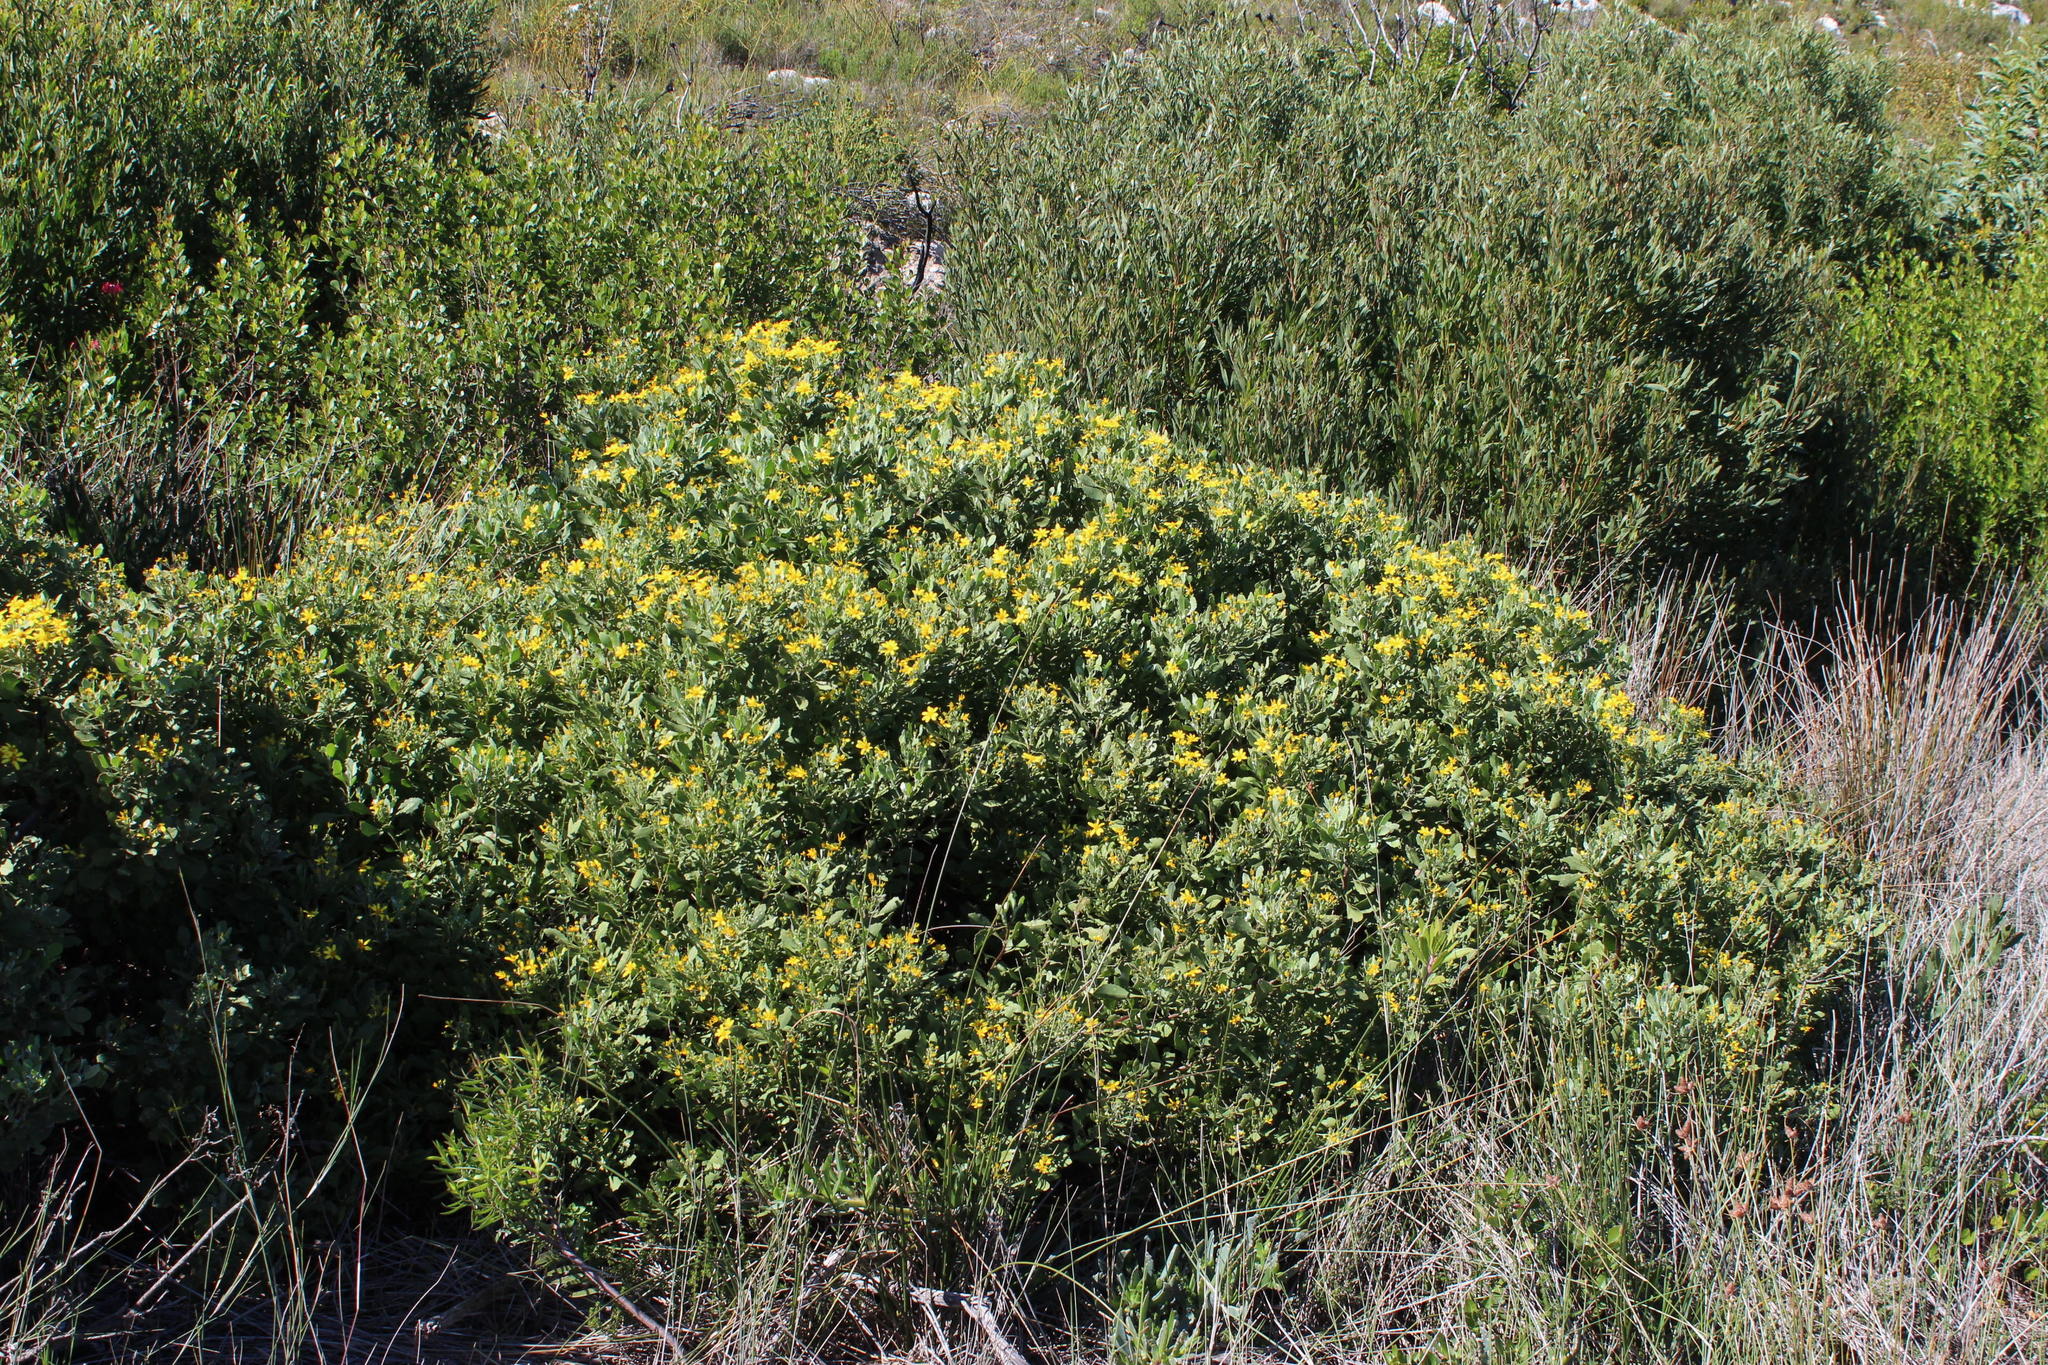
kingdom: Plantae
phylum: Tracheophyta
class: Magnoliopsida
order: Asterales
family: Asteraceae
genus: Osteospermum
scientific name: Osteospermum moniliferum
